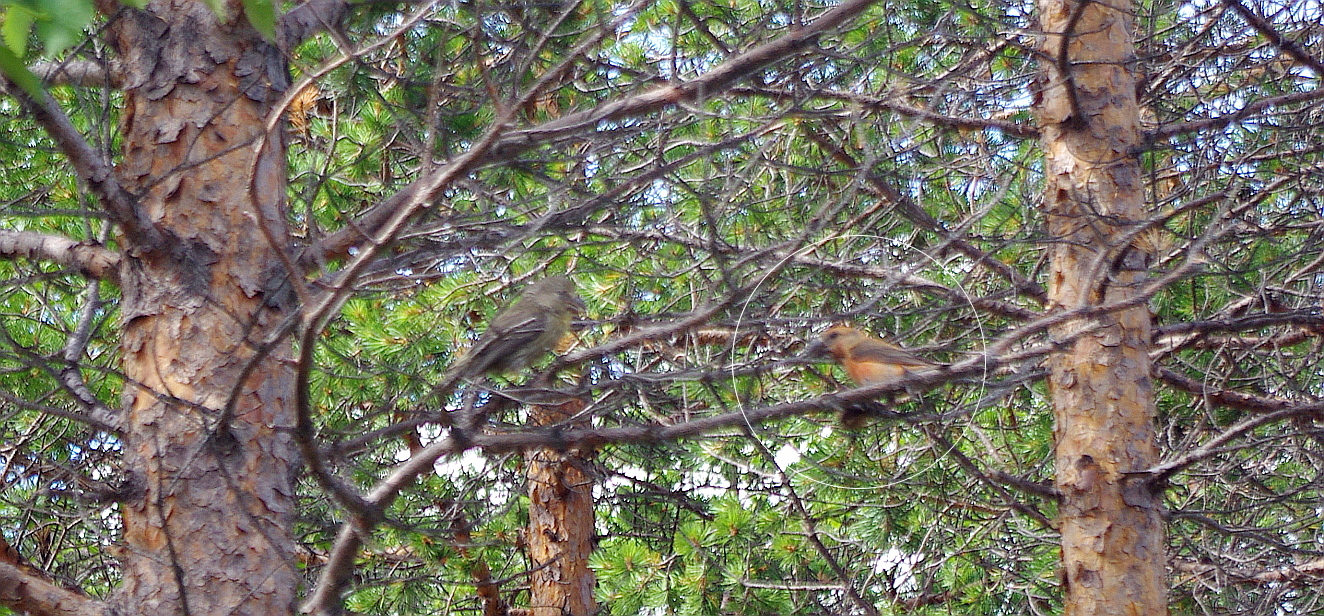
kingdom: Animalia
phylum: Chordata
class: Aves
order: Passeriformes
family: Fringillidae
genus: Loxia
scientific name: Loxia pytyopsittacus
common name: Parrot crossbill
